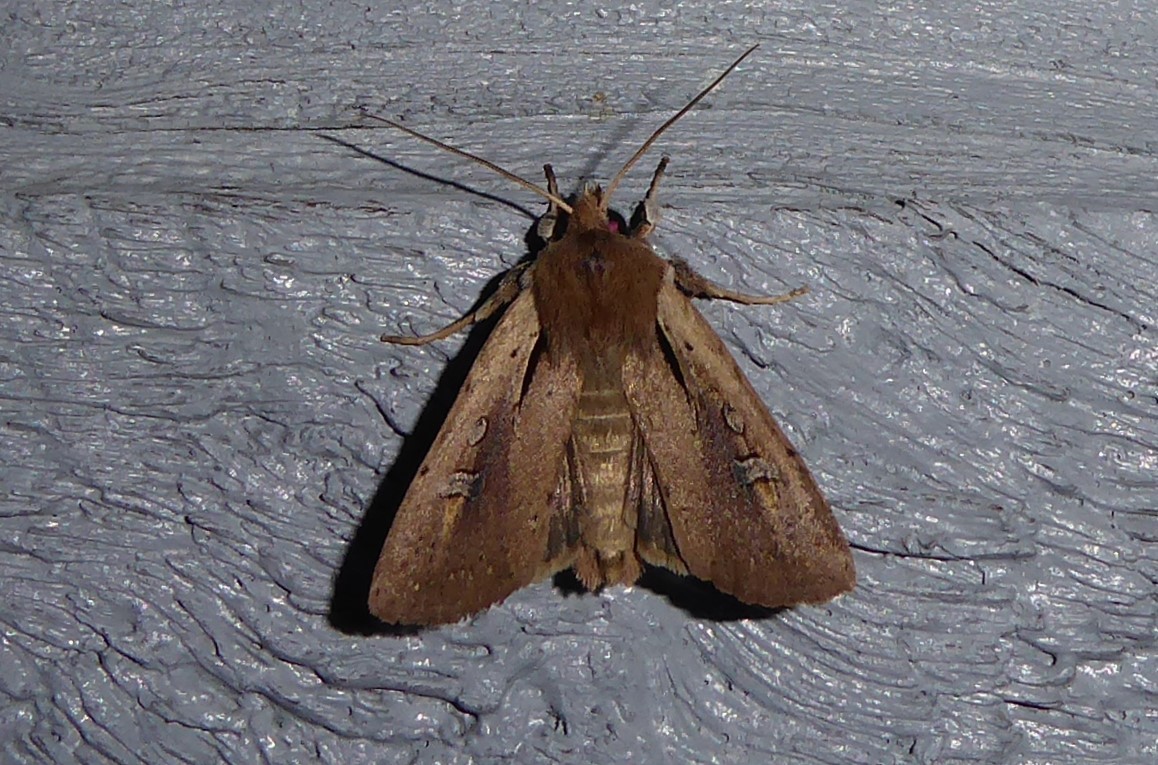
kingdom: Animalia
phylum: Arthropoda
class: Insecta
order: Lepidoptera
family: Noctuidae
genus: Ichneutica
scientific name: Ichneutica atristriga
